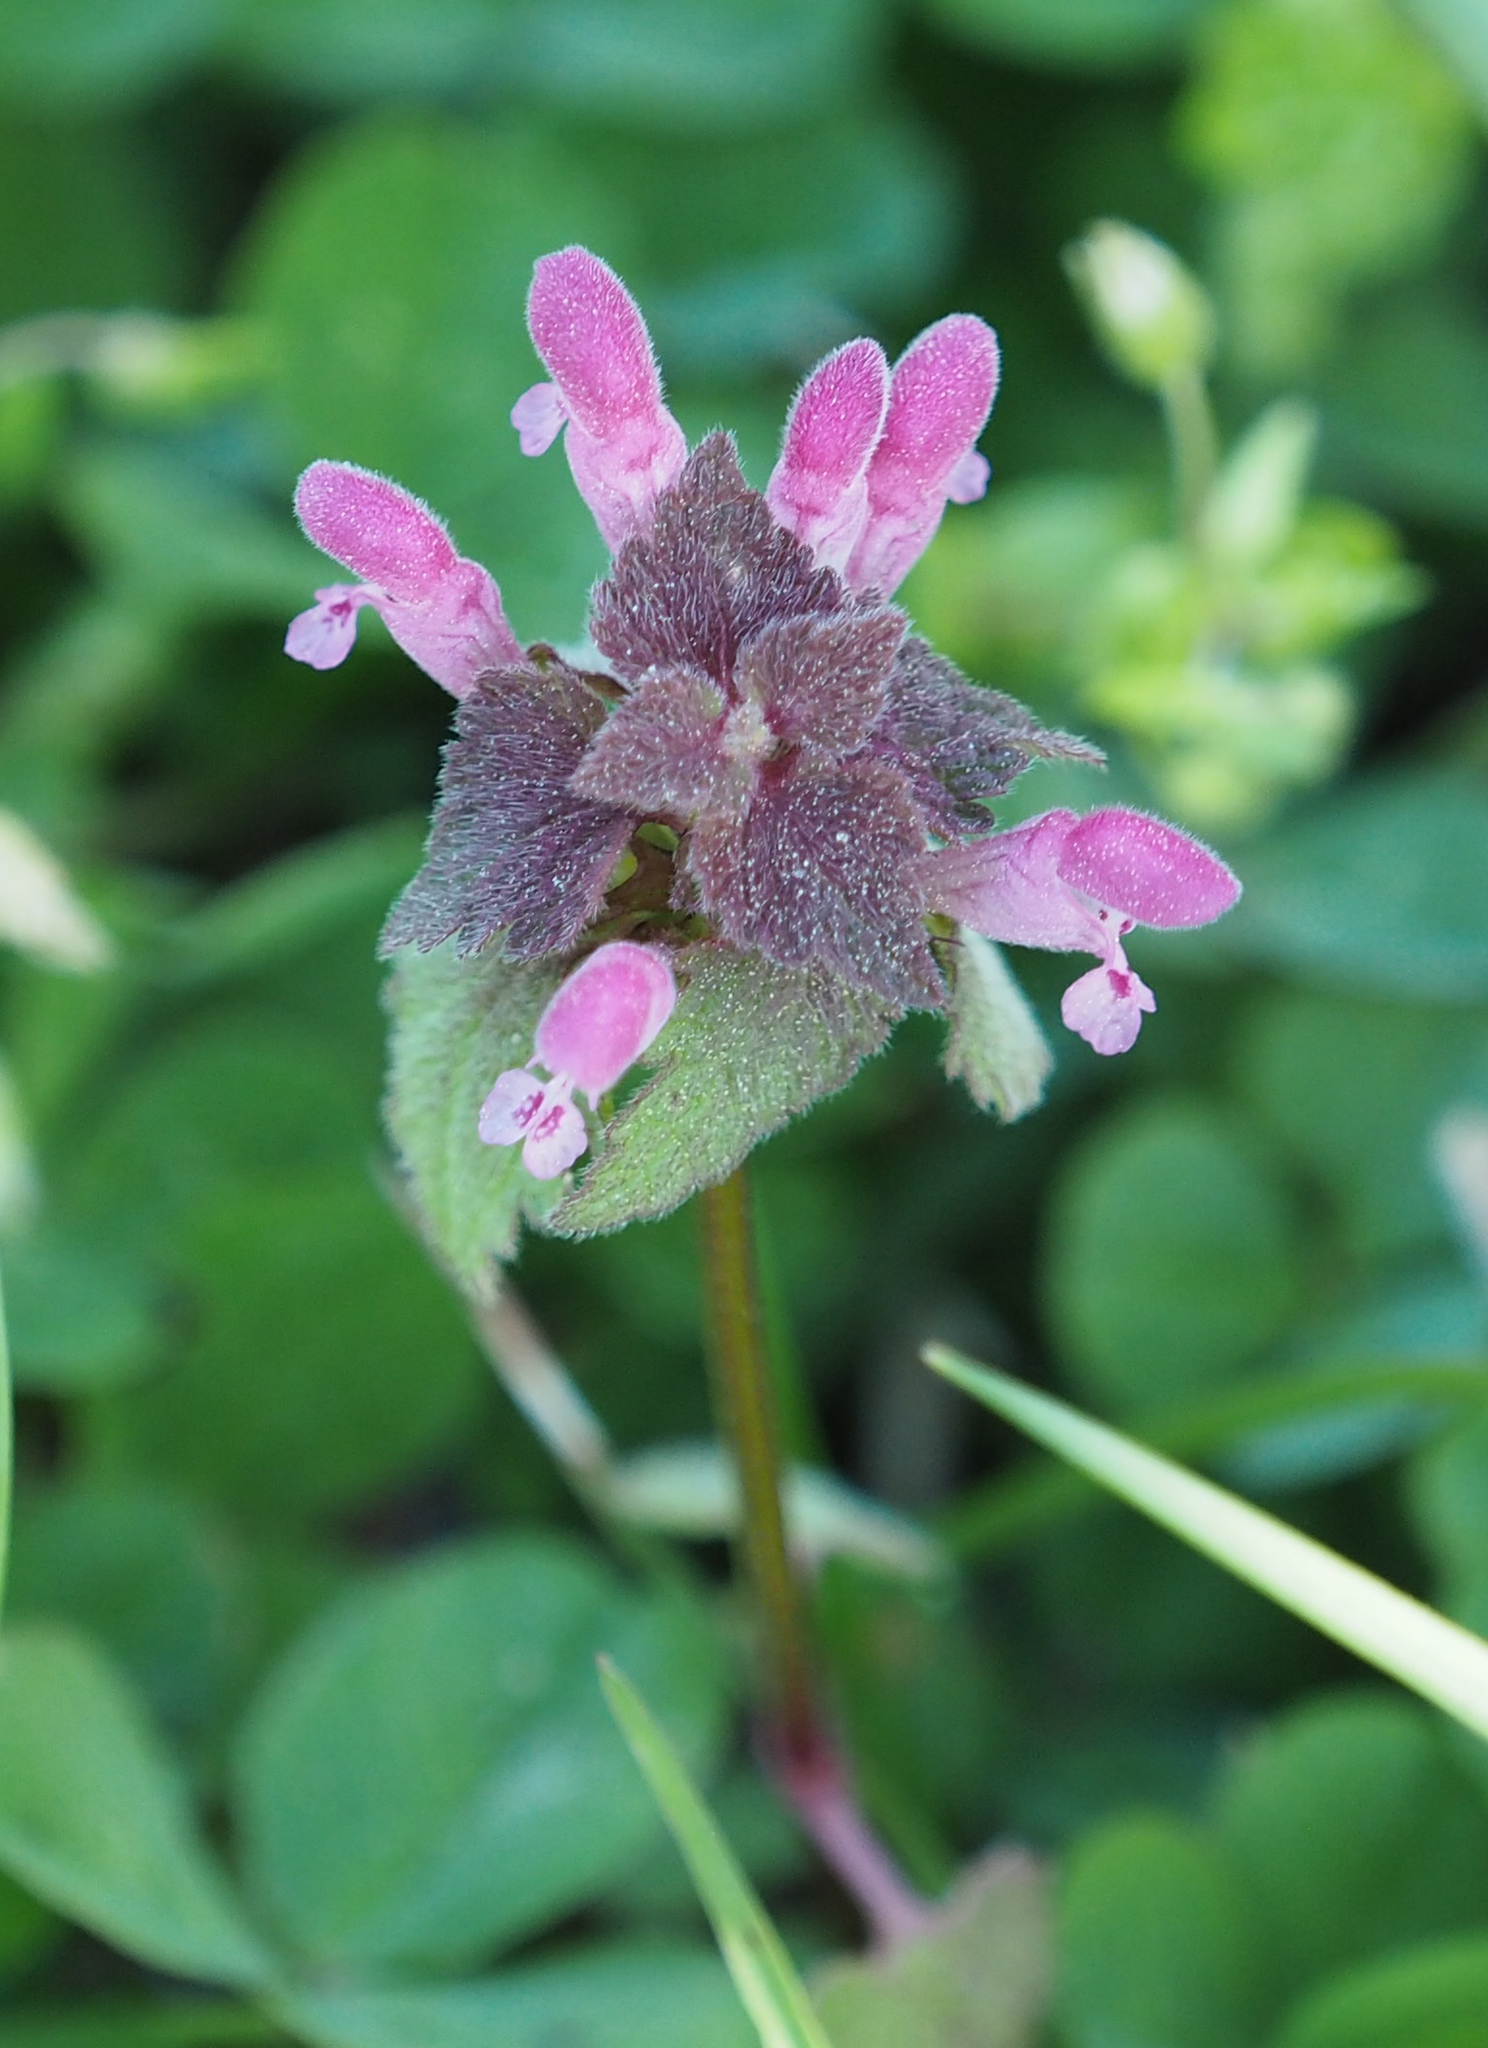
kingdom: Plantae
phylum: Tracheophyta
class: Magnoliopsida
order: Lamiales
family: Lamiaceae
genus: Lamium
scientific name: Lamium purpureum
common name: Red dead-nettle
